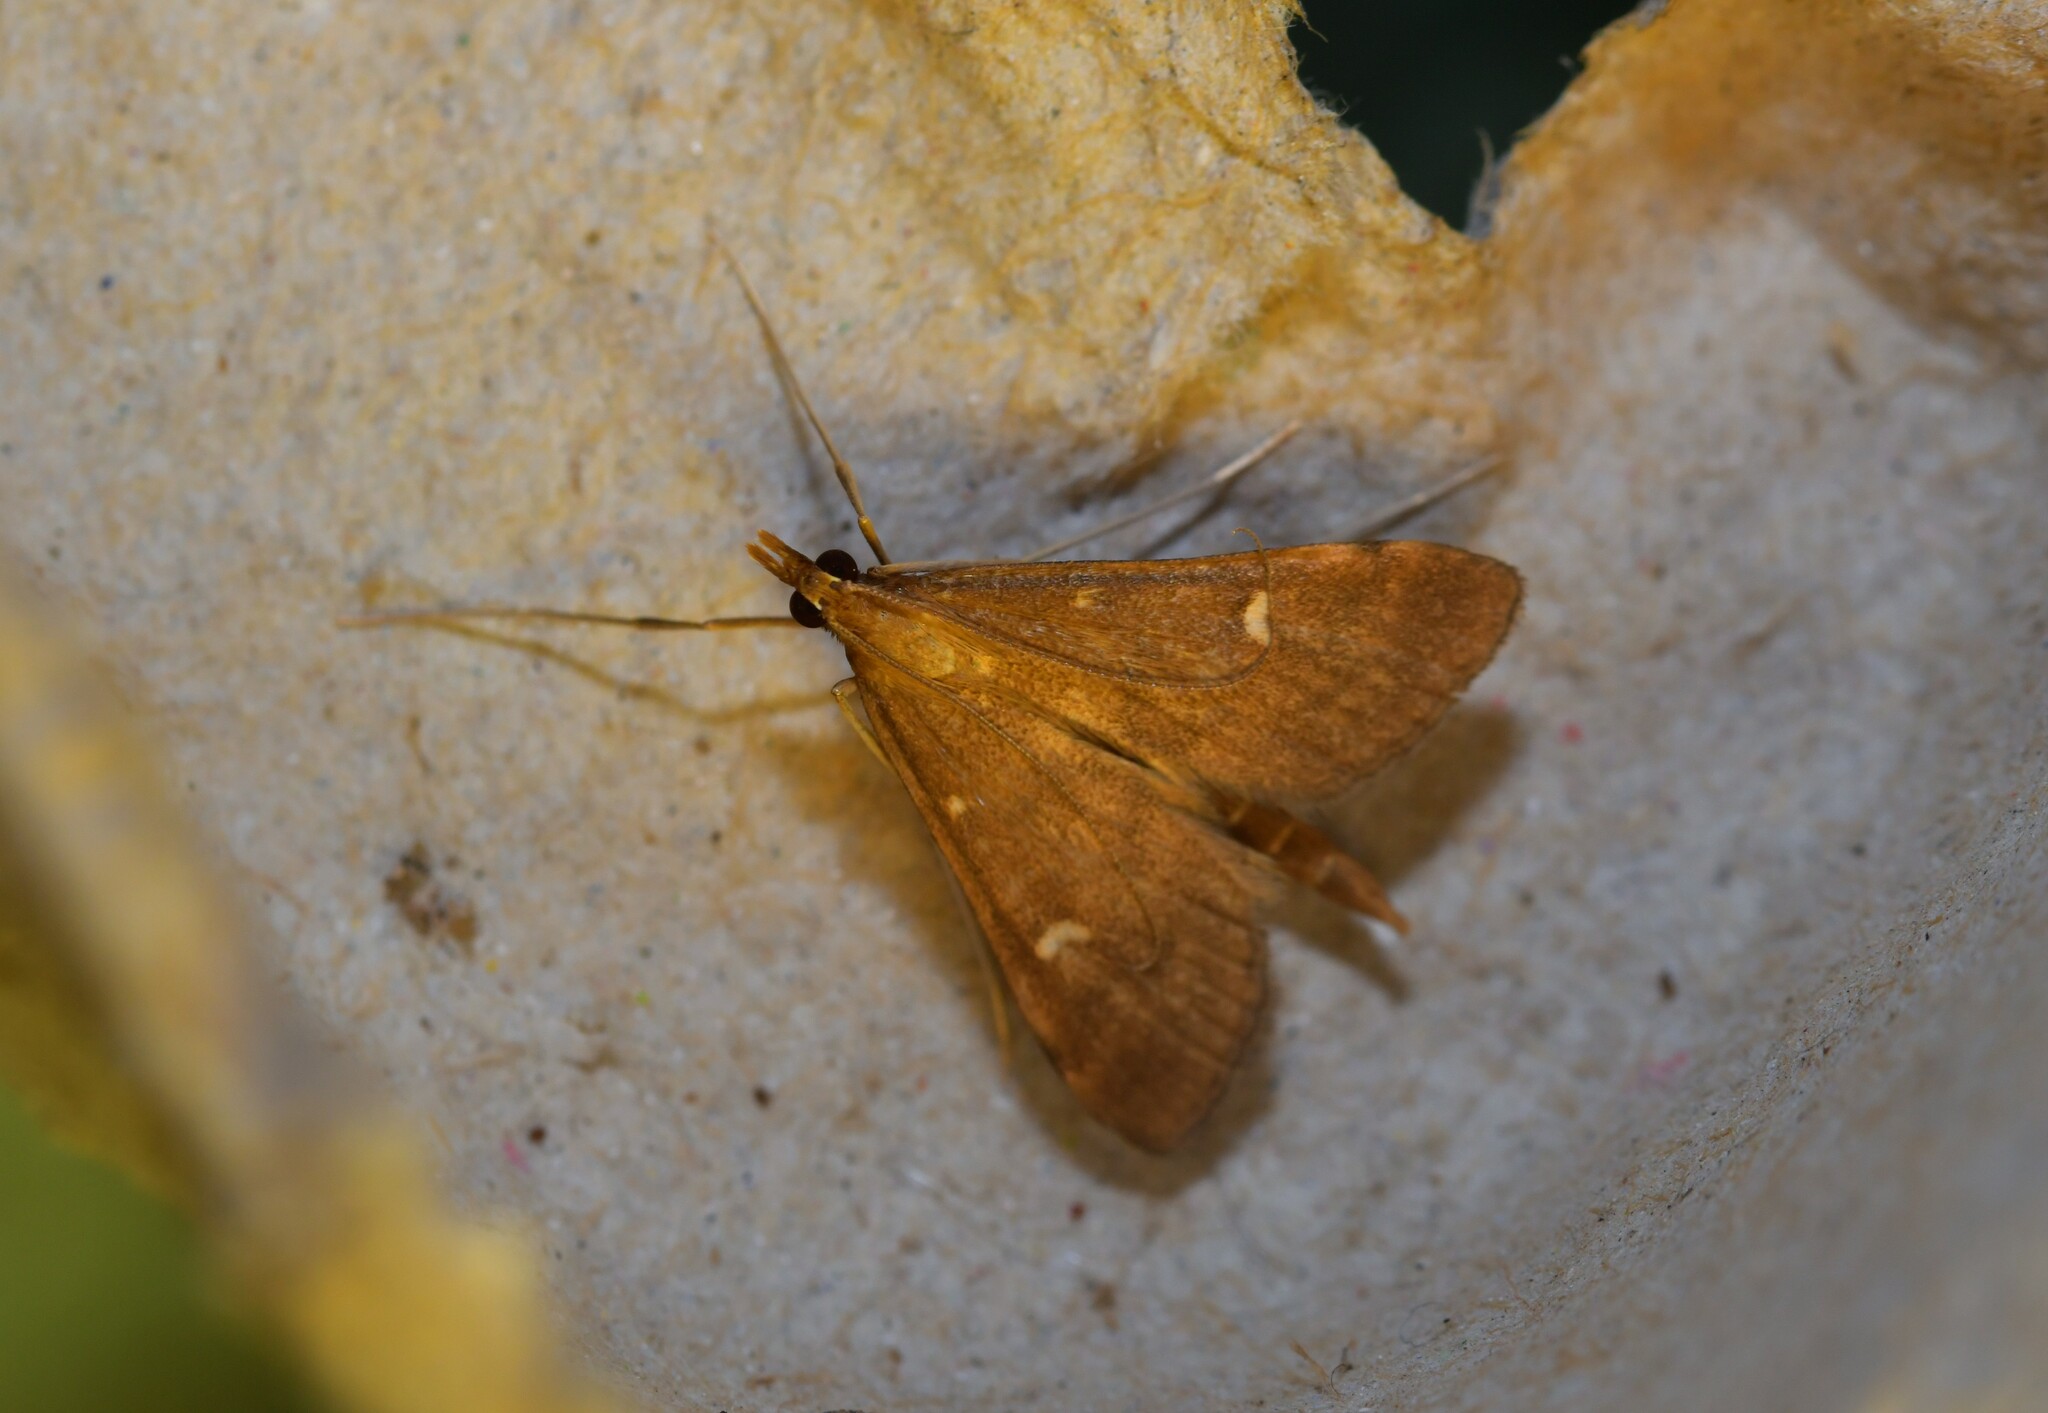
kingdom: Animalia
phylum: Arthropoda
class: Insecta
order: Lepidoptera
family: Crambidae
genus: Stenia
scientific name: Stenia Dolicharthria punctalis
